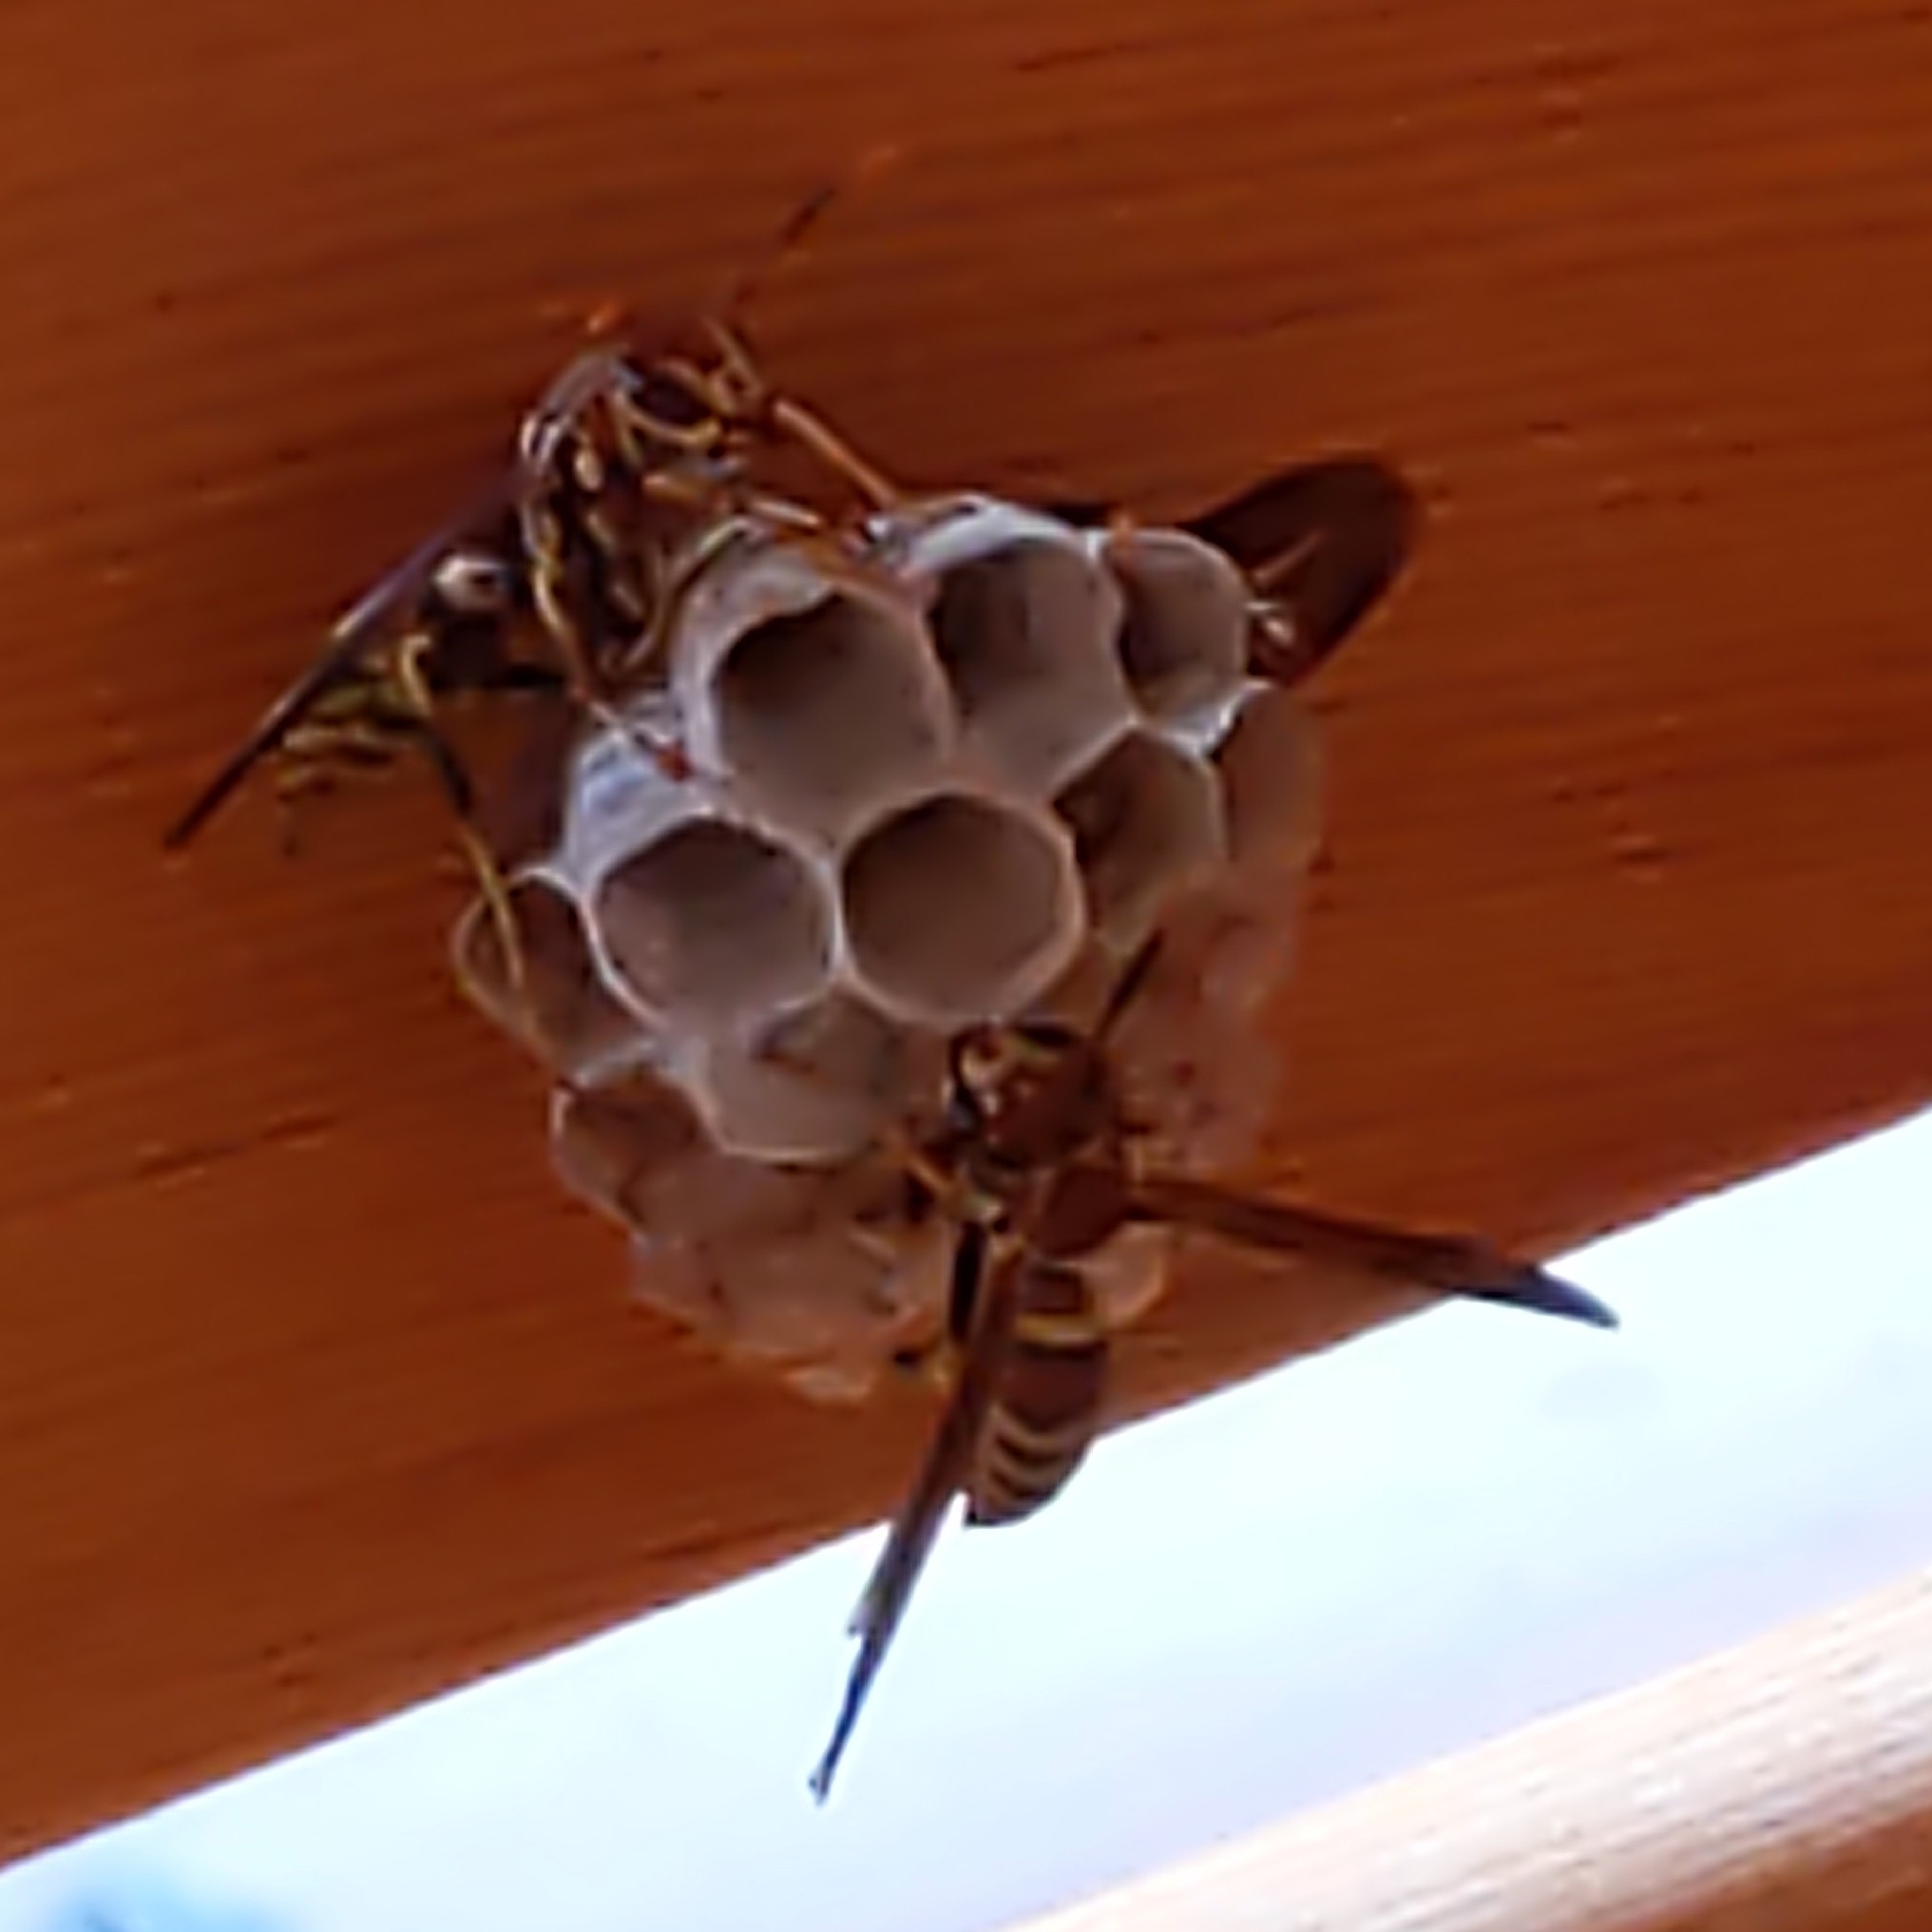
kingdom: Animalia
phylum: Arthropoda
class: Insecta
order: Hymenoptera
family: Eumenidae
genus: Polistes
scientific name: Polistes exclamans
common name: Paper wasp
